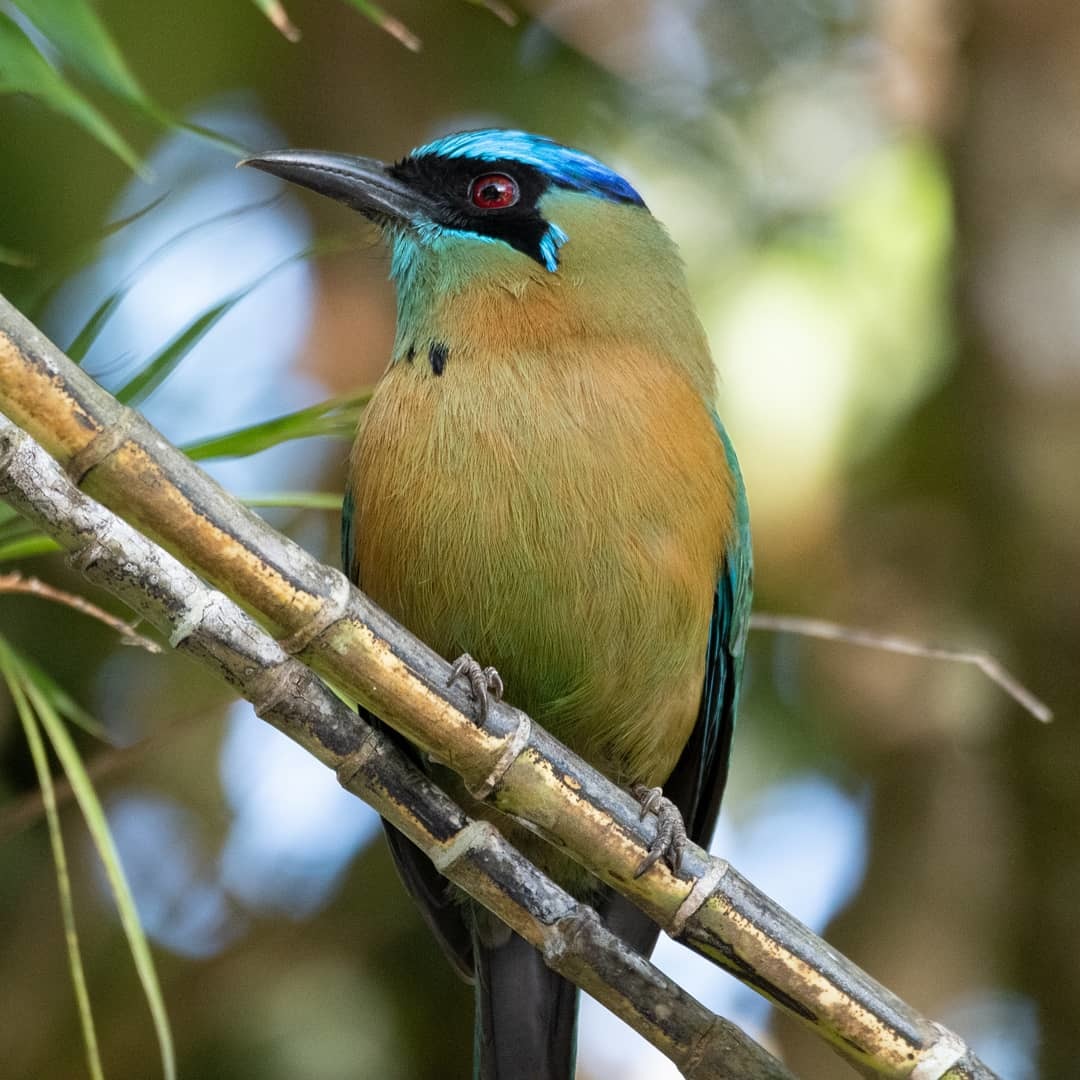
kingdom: Animalia
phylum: Chordata
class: Aves
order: Coraciiformes
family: Momotidae
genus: Momotus
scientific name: Momotus lessonii
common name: Lesson's motmot
